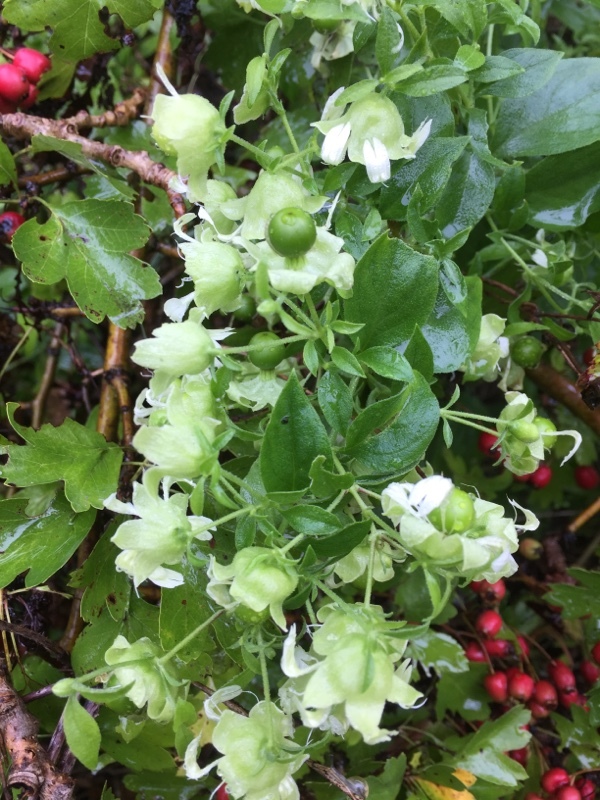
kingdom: Plantae
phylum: Tracheophyta
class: Magnoliopsida
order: Caryophyllales
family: Caryophyllaceae
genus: Silene
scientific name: Silene baccifera
